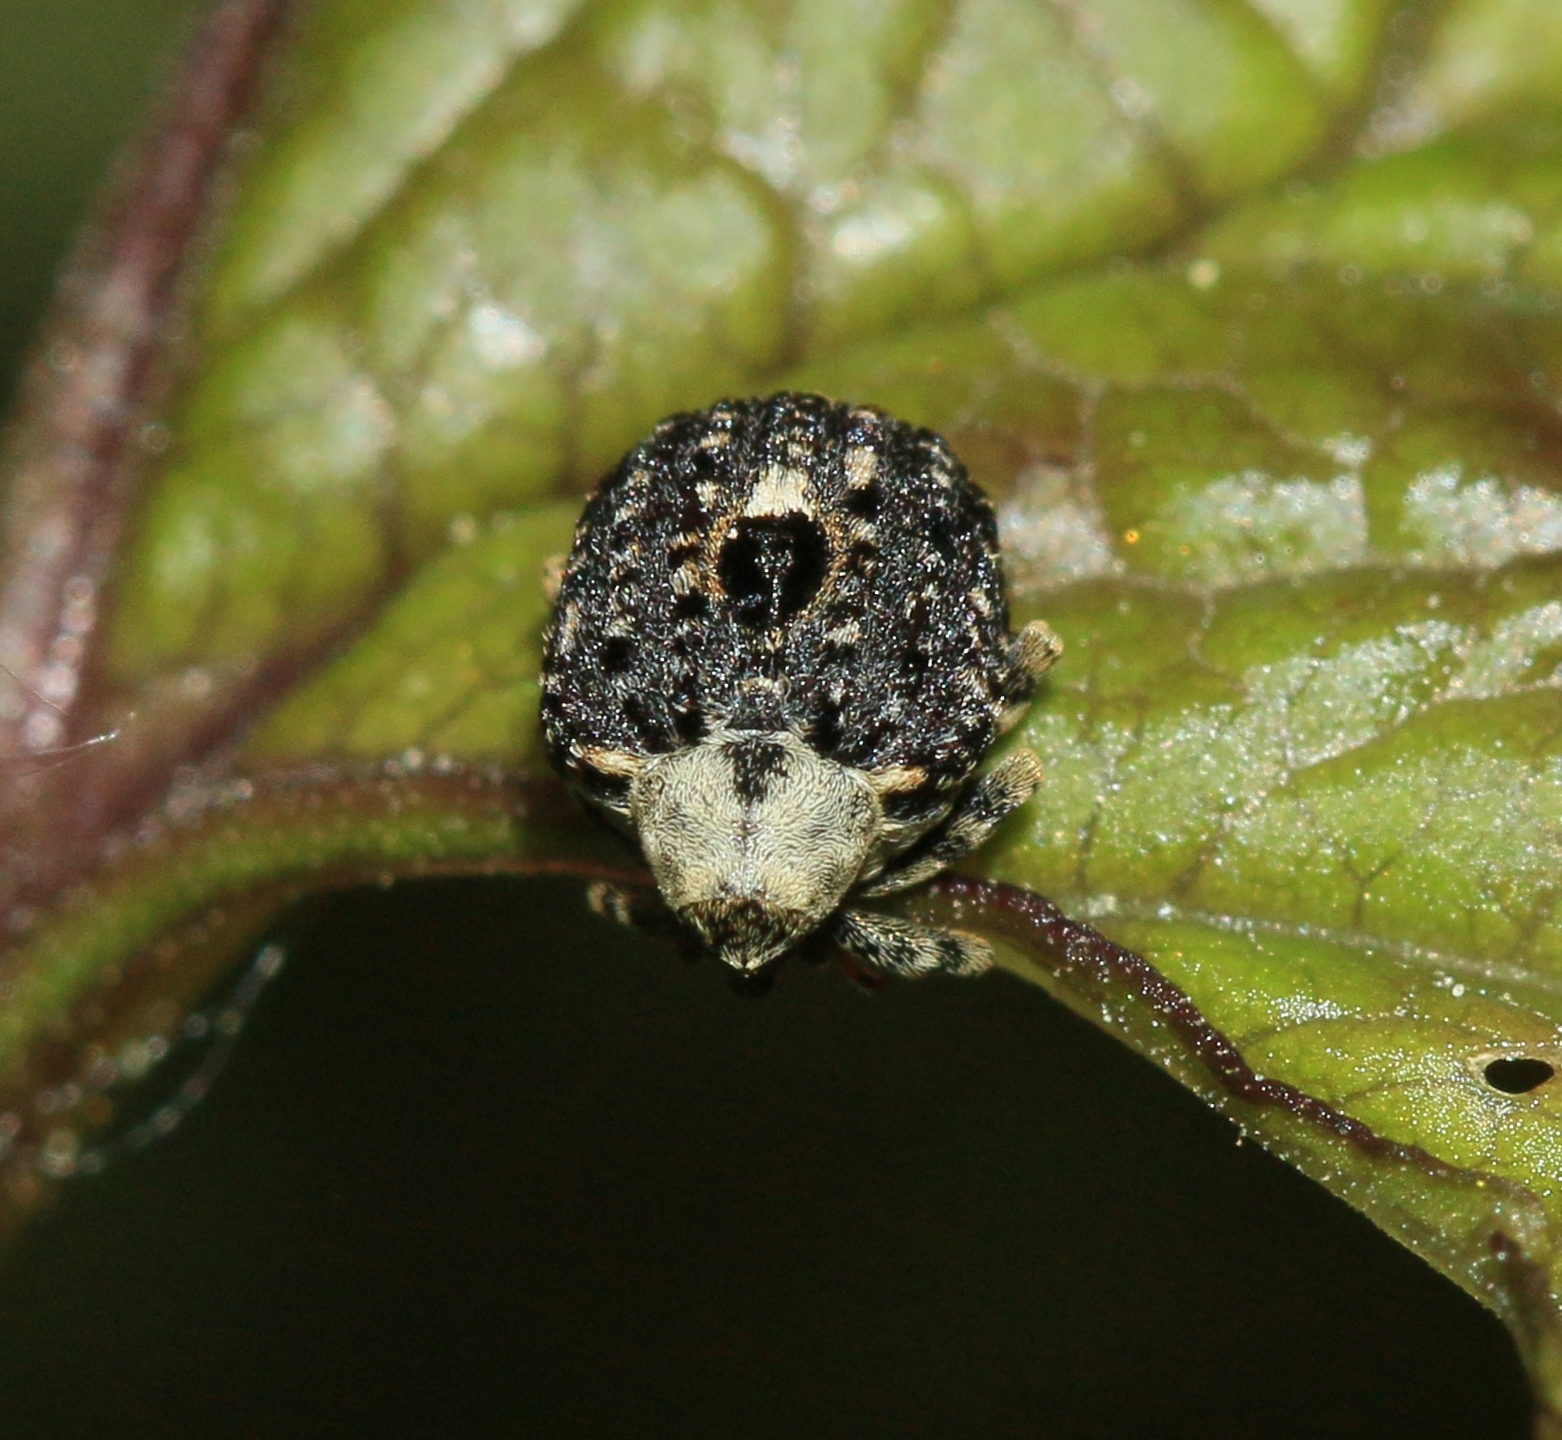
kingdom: Animalia
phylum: Arthropoda
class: Insecta
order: Coleoptera
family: Curculionidae
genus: Cionus
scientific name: Cionus scrophulariae
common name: Common figwort weevil
